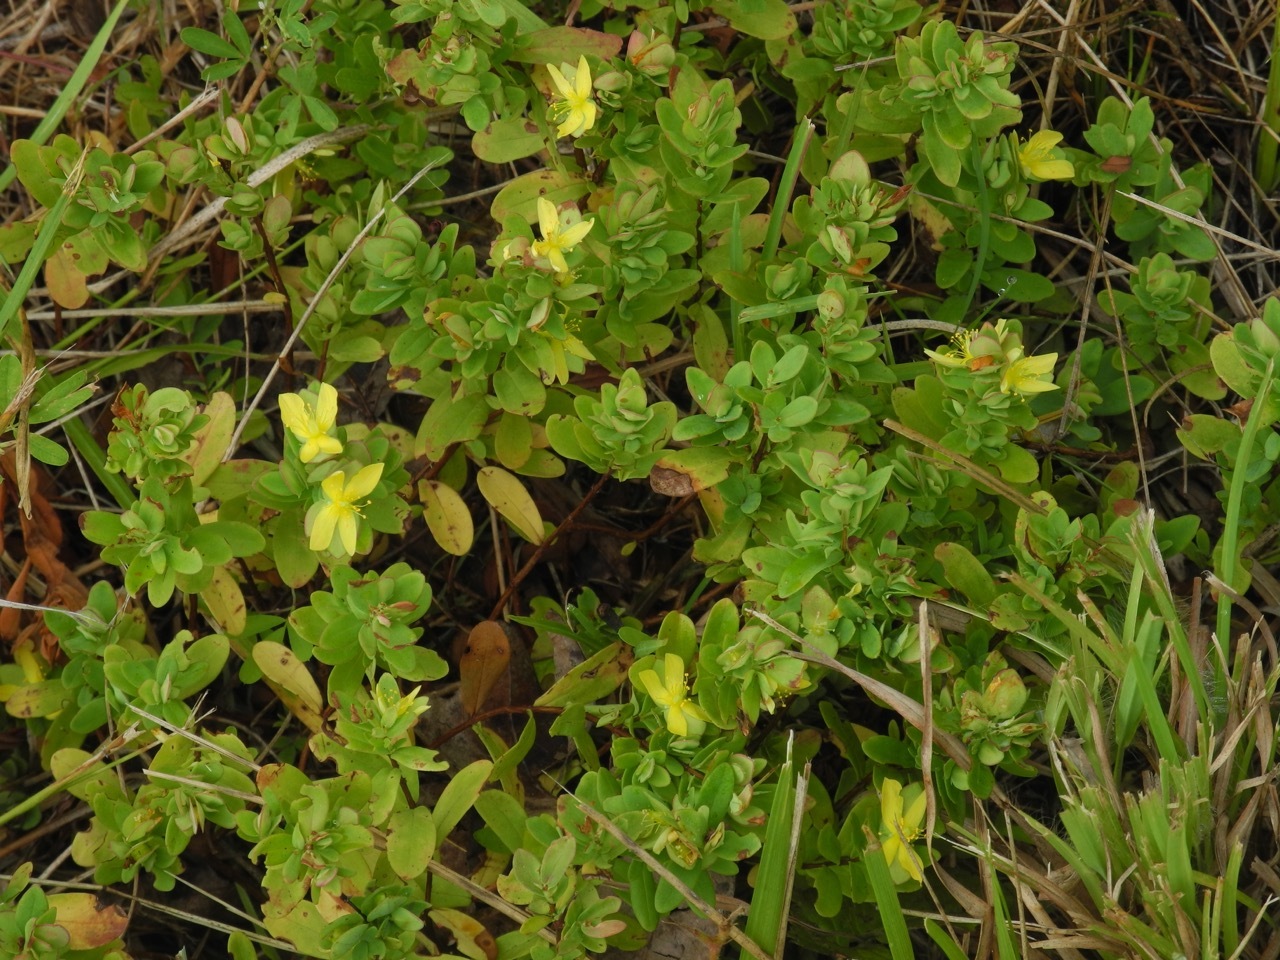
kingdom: Plantae
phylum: Tracheophyta
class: Magnoliopsida
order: Malpighiales
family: Hypericaceae
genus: Hypericum
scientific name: Hypericum hypericoides
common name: St. andrew's cross
